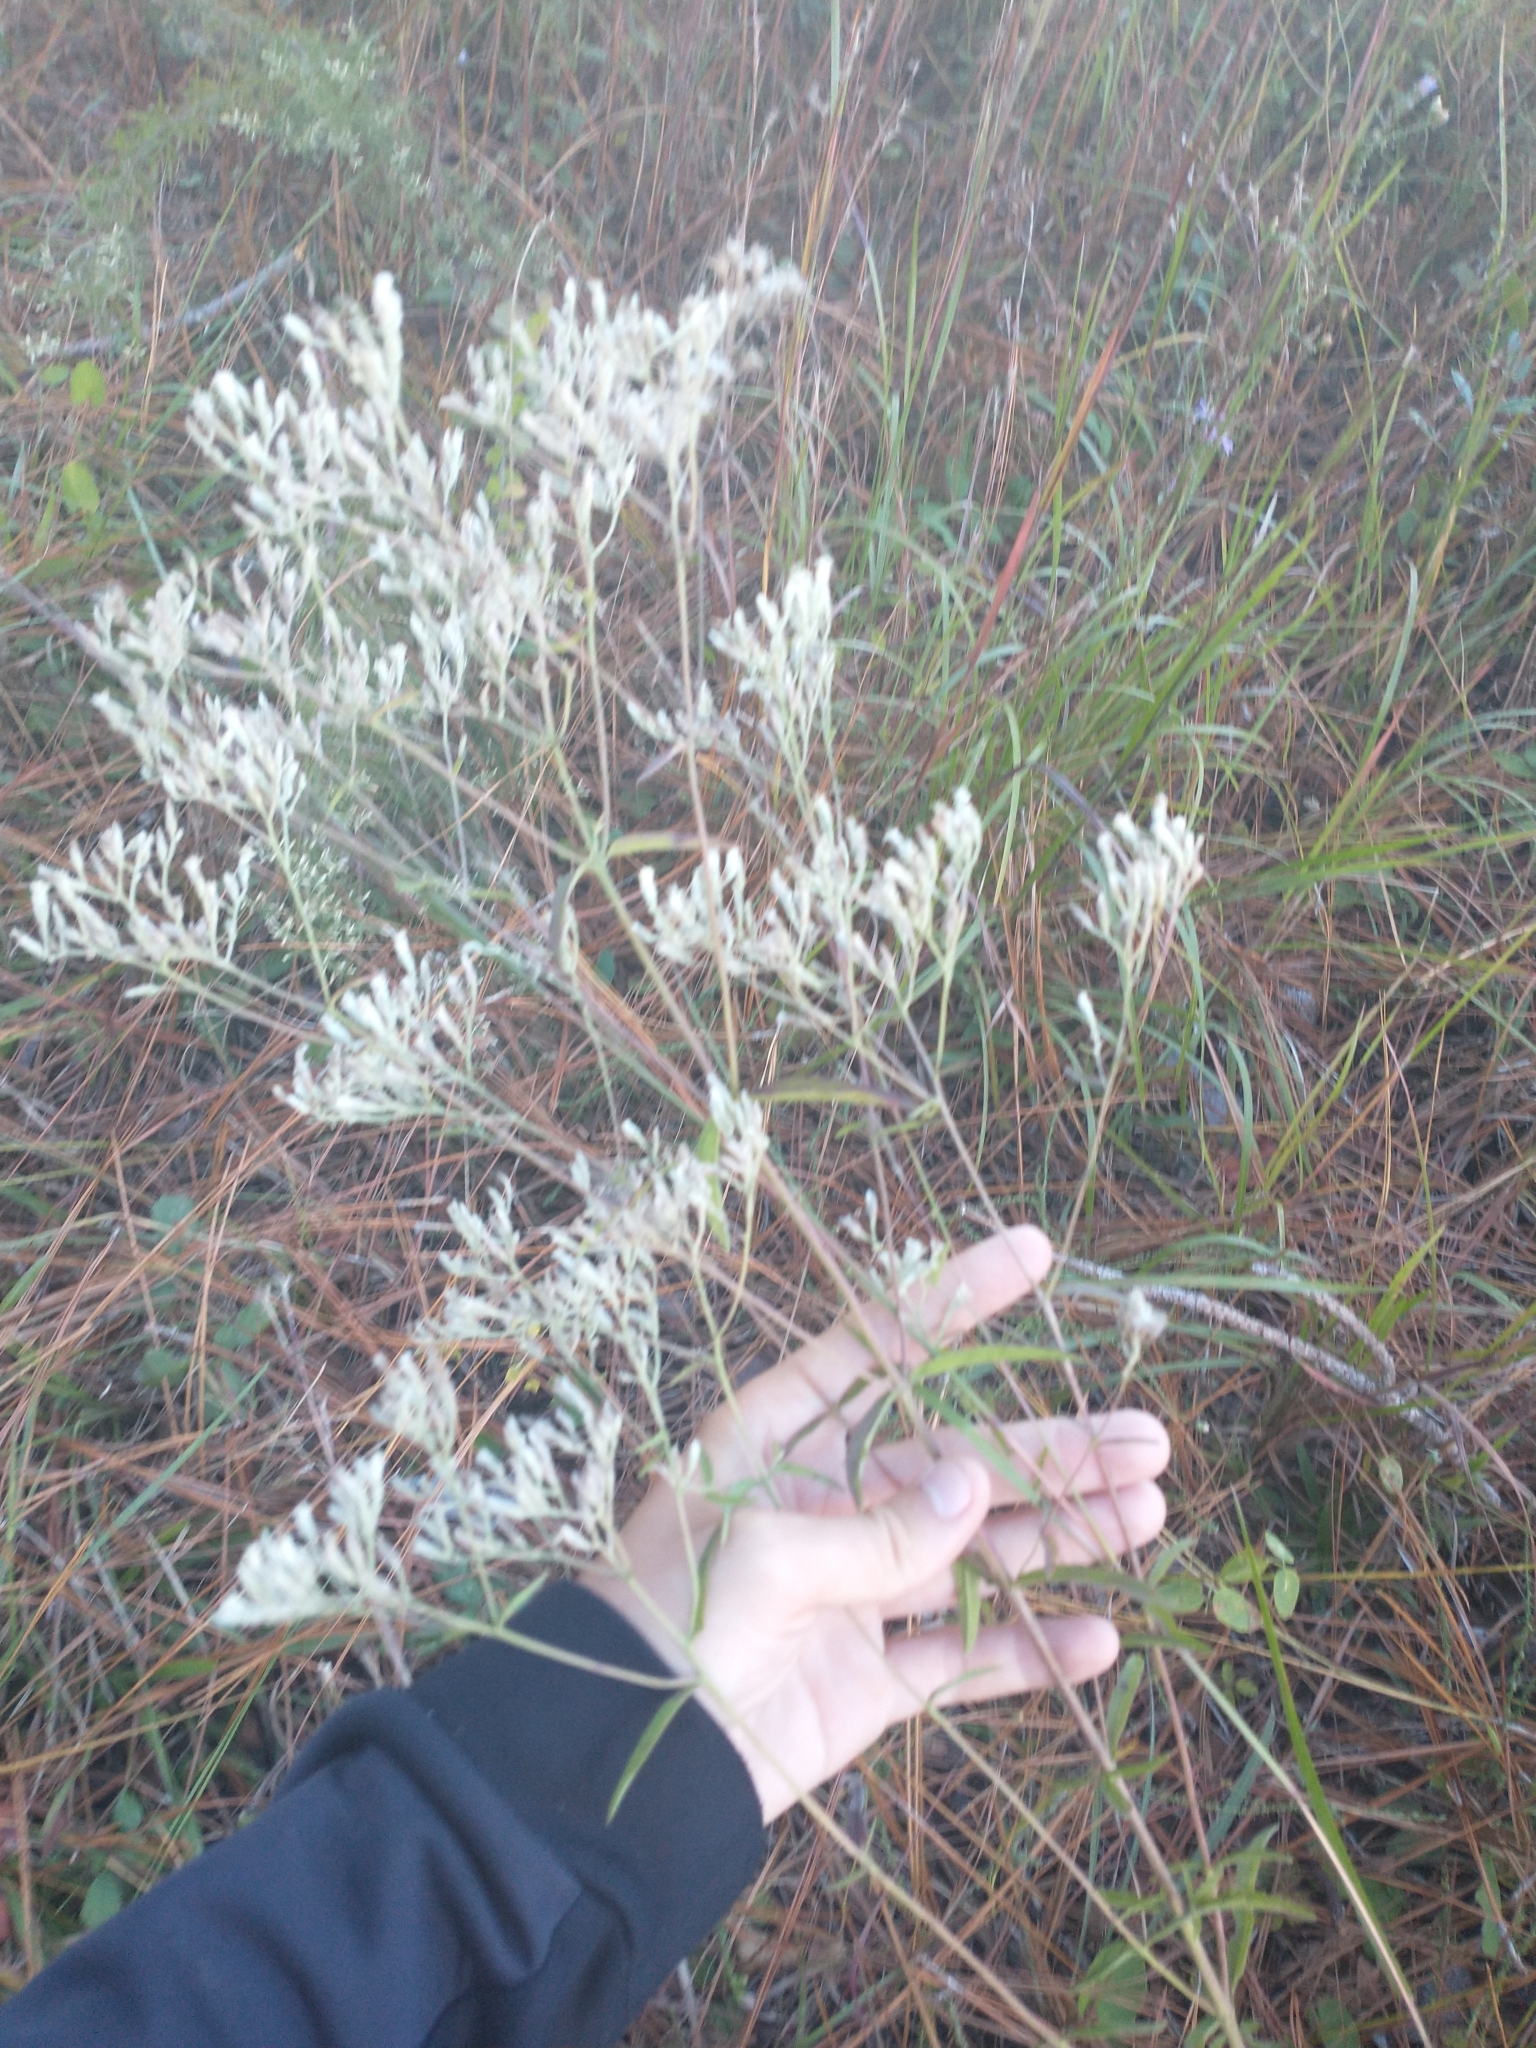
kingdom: Plantae
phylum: Tracheophyta
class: Magnoliopsida
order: Asterales
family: Asteraceae
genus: Eupatorium
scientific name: Eupatorium mohrii
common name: Mohr's thoroughwort
